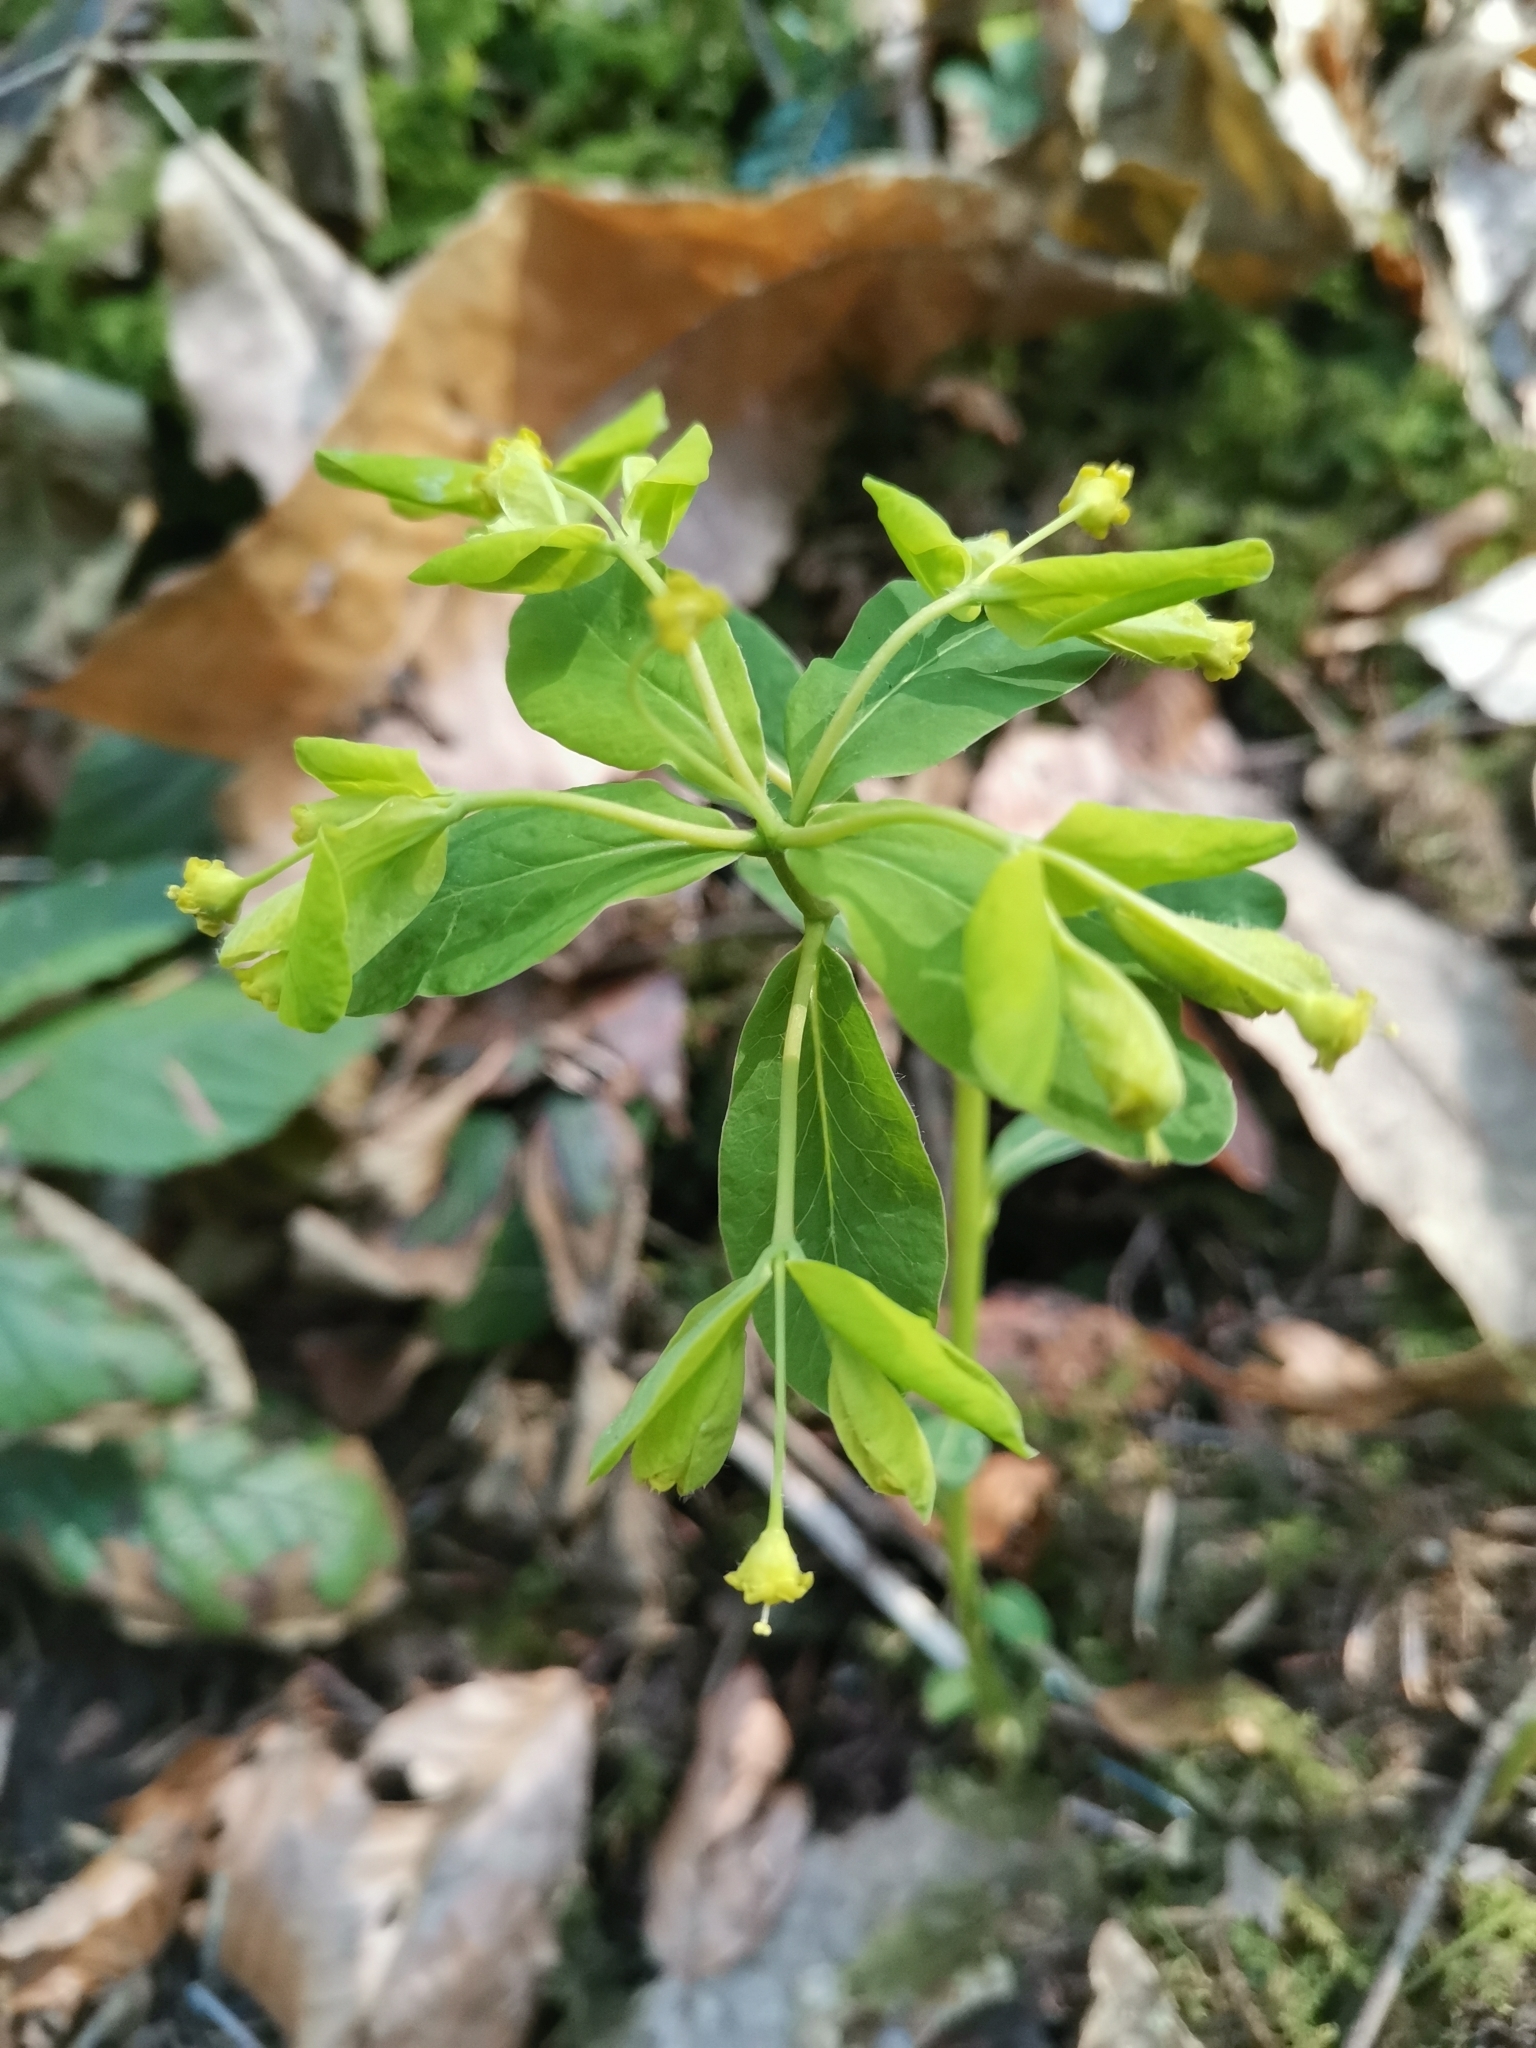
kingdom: Plantae
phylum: Tracheophyta
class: Magnoliopsida
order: Malpighiales
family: Euphorbiaceae
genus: Euphorbia
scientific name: Euphorbia carniolica
